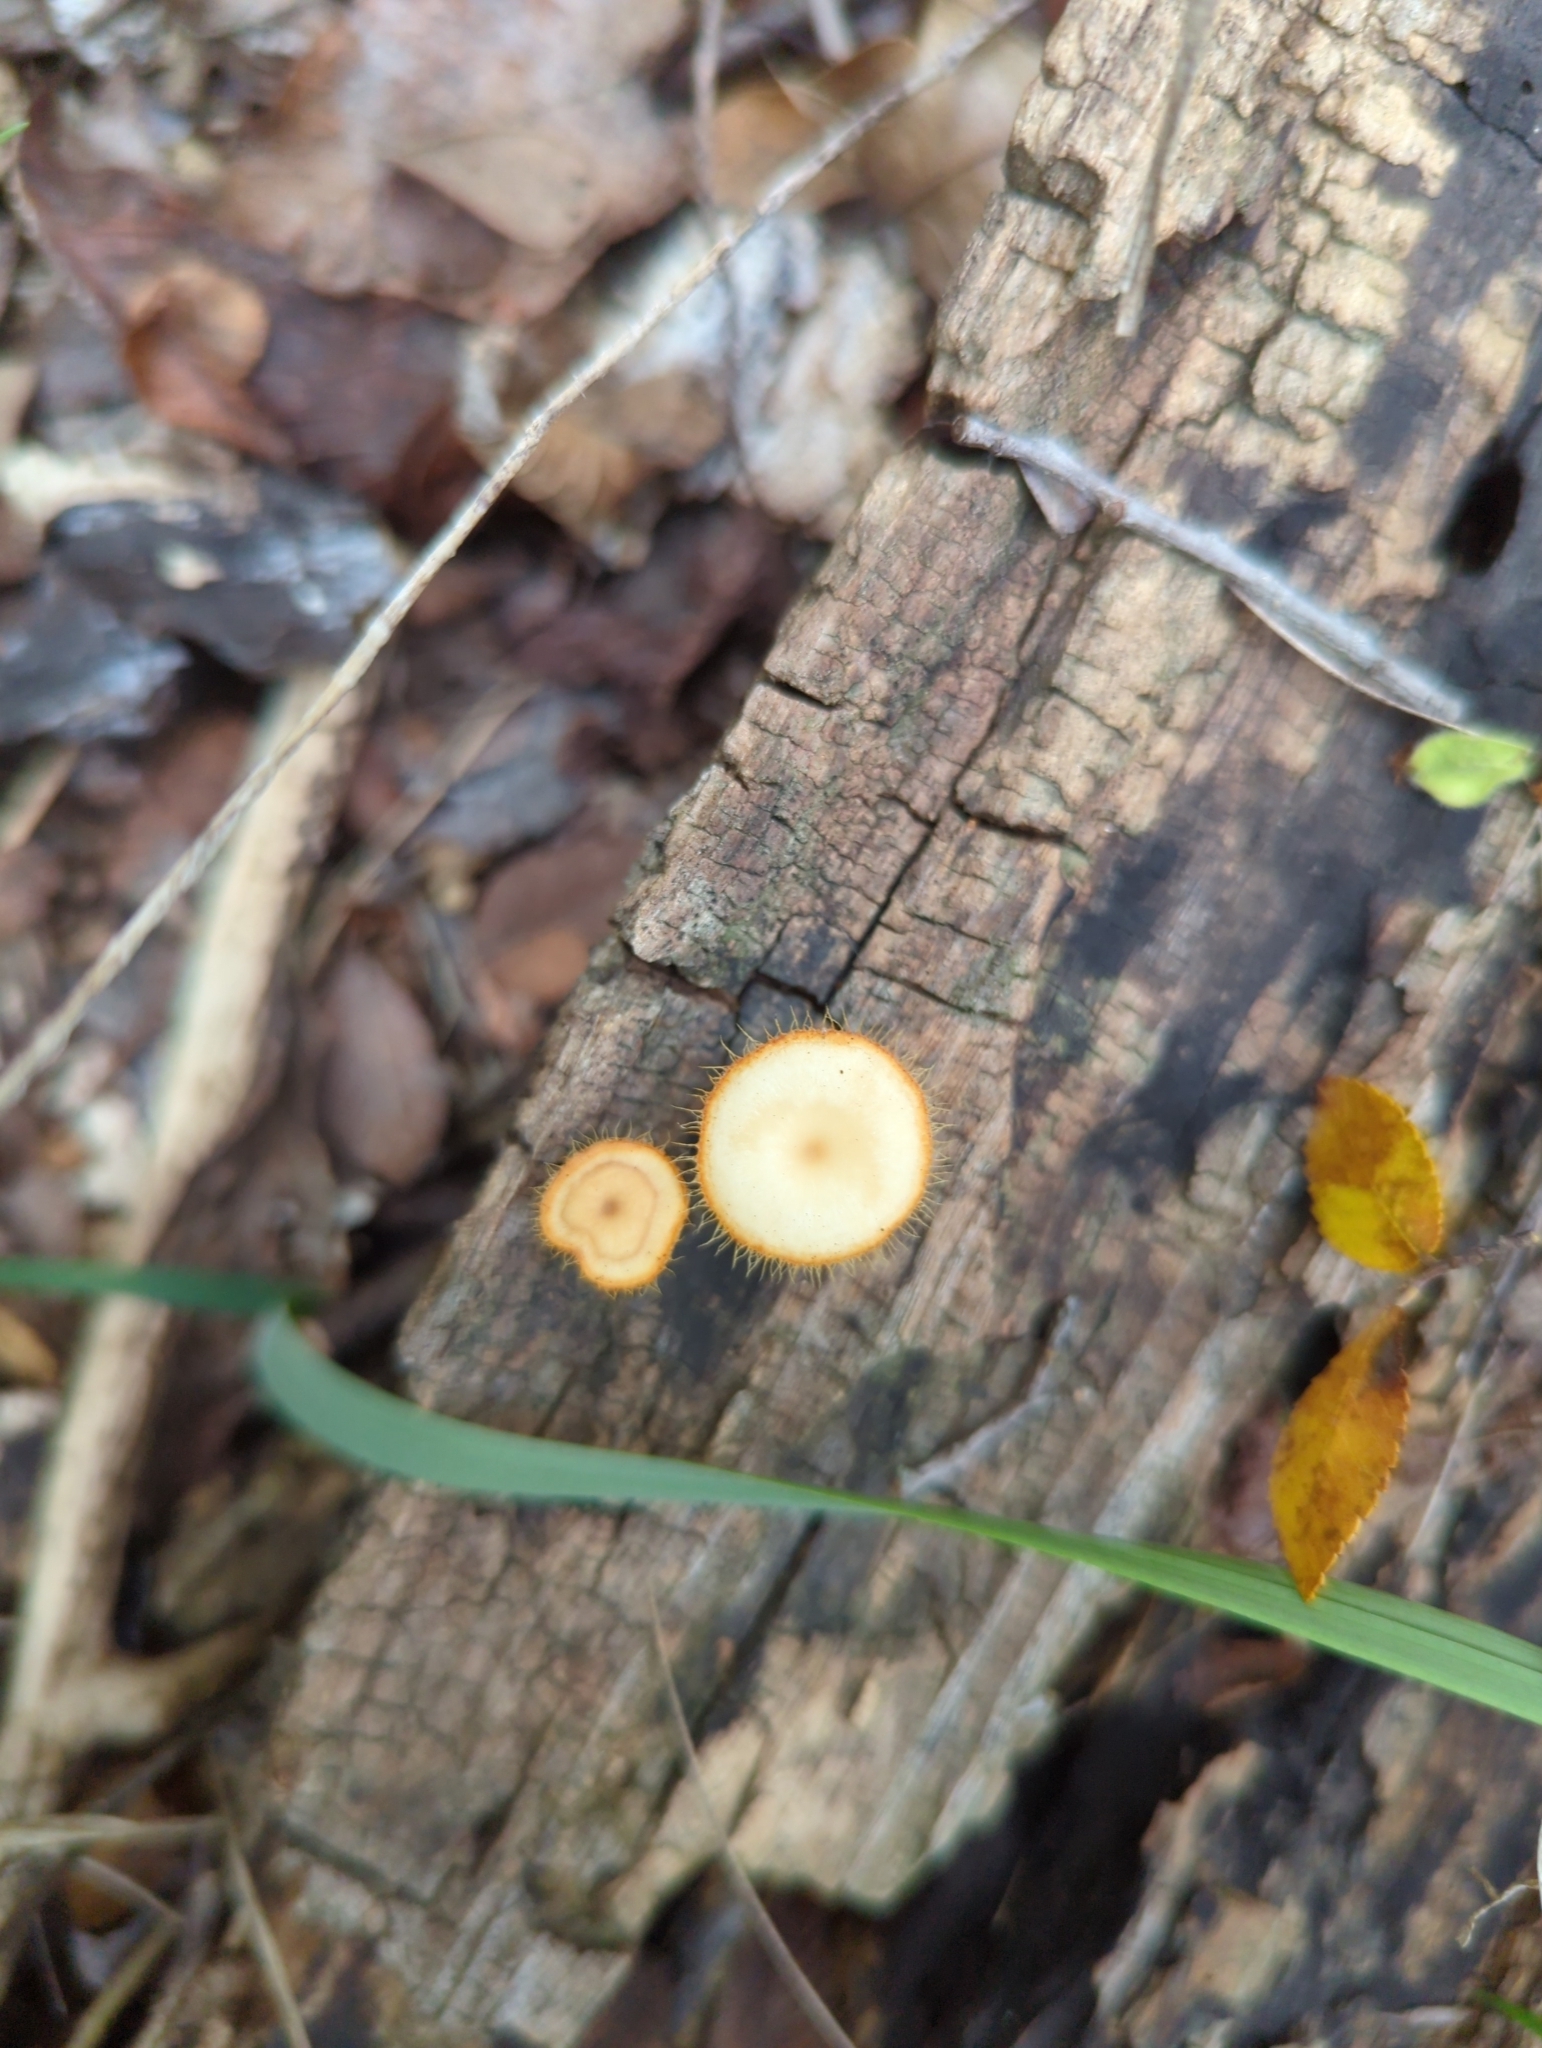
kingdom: Fungi
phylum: Basidiomycota
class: Agaricomycetes
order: Polyporales
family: Polyporaceae
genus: Lentinus
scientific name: Lentinus flexipes
